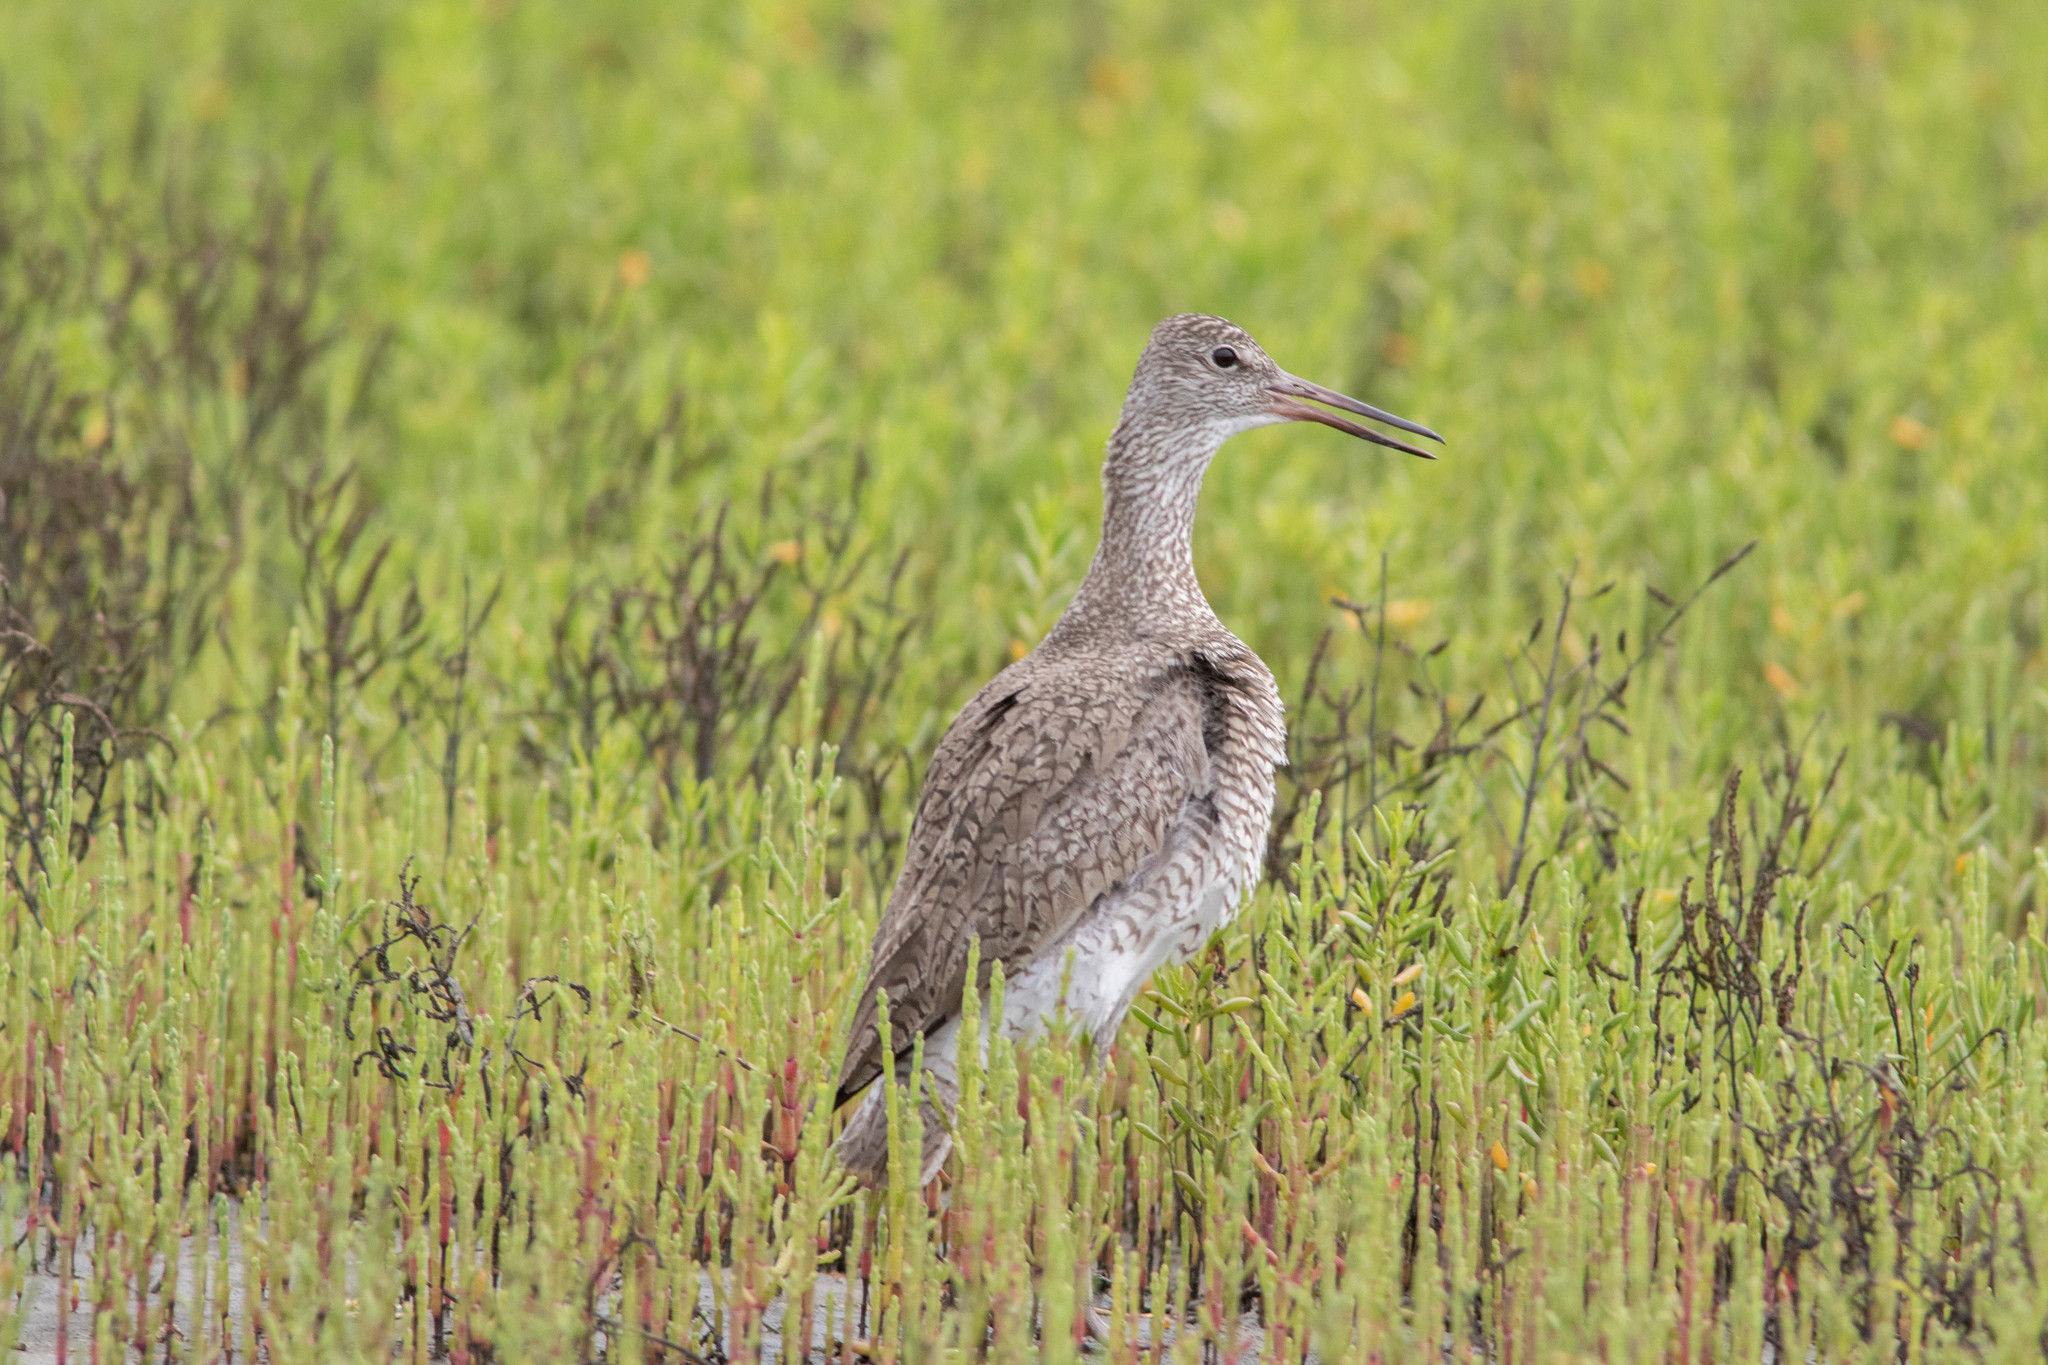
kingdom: Animalia
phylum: Chordata
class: Aves
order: Charadriiformes
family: Scolopacidae
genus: Tringa
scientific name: Tringa semipalmata
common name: Willet
